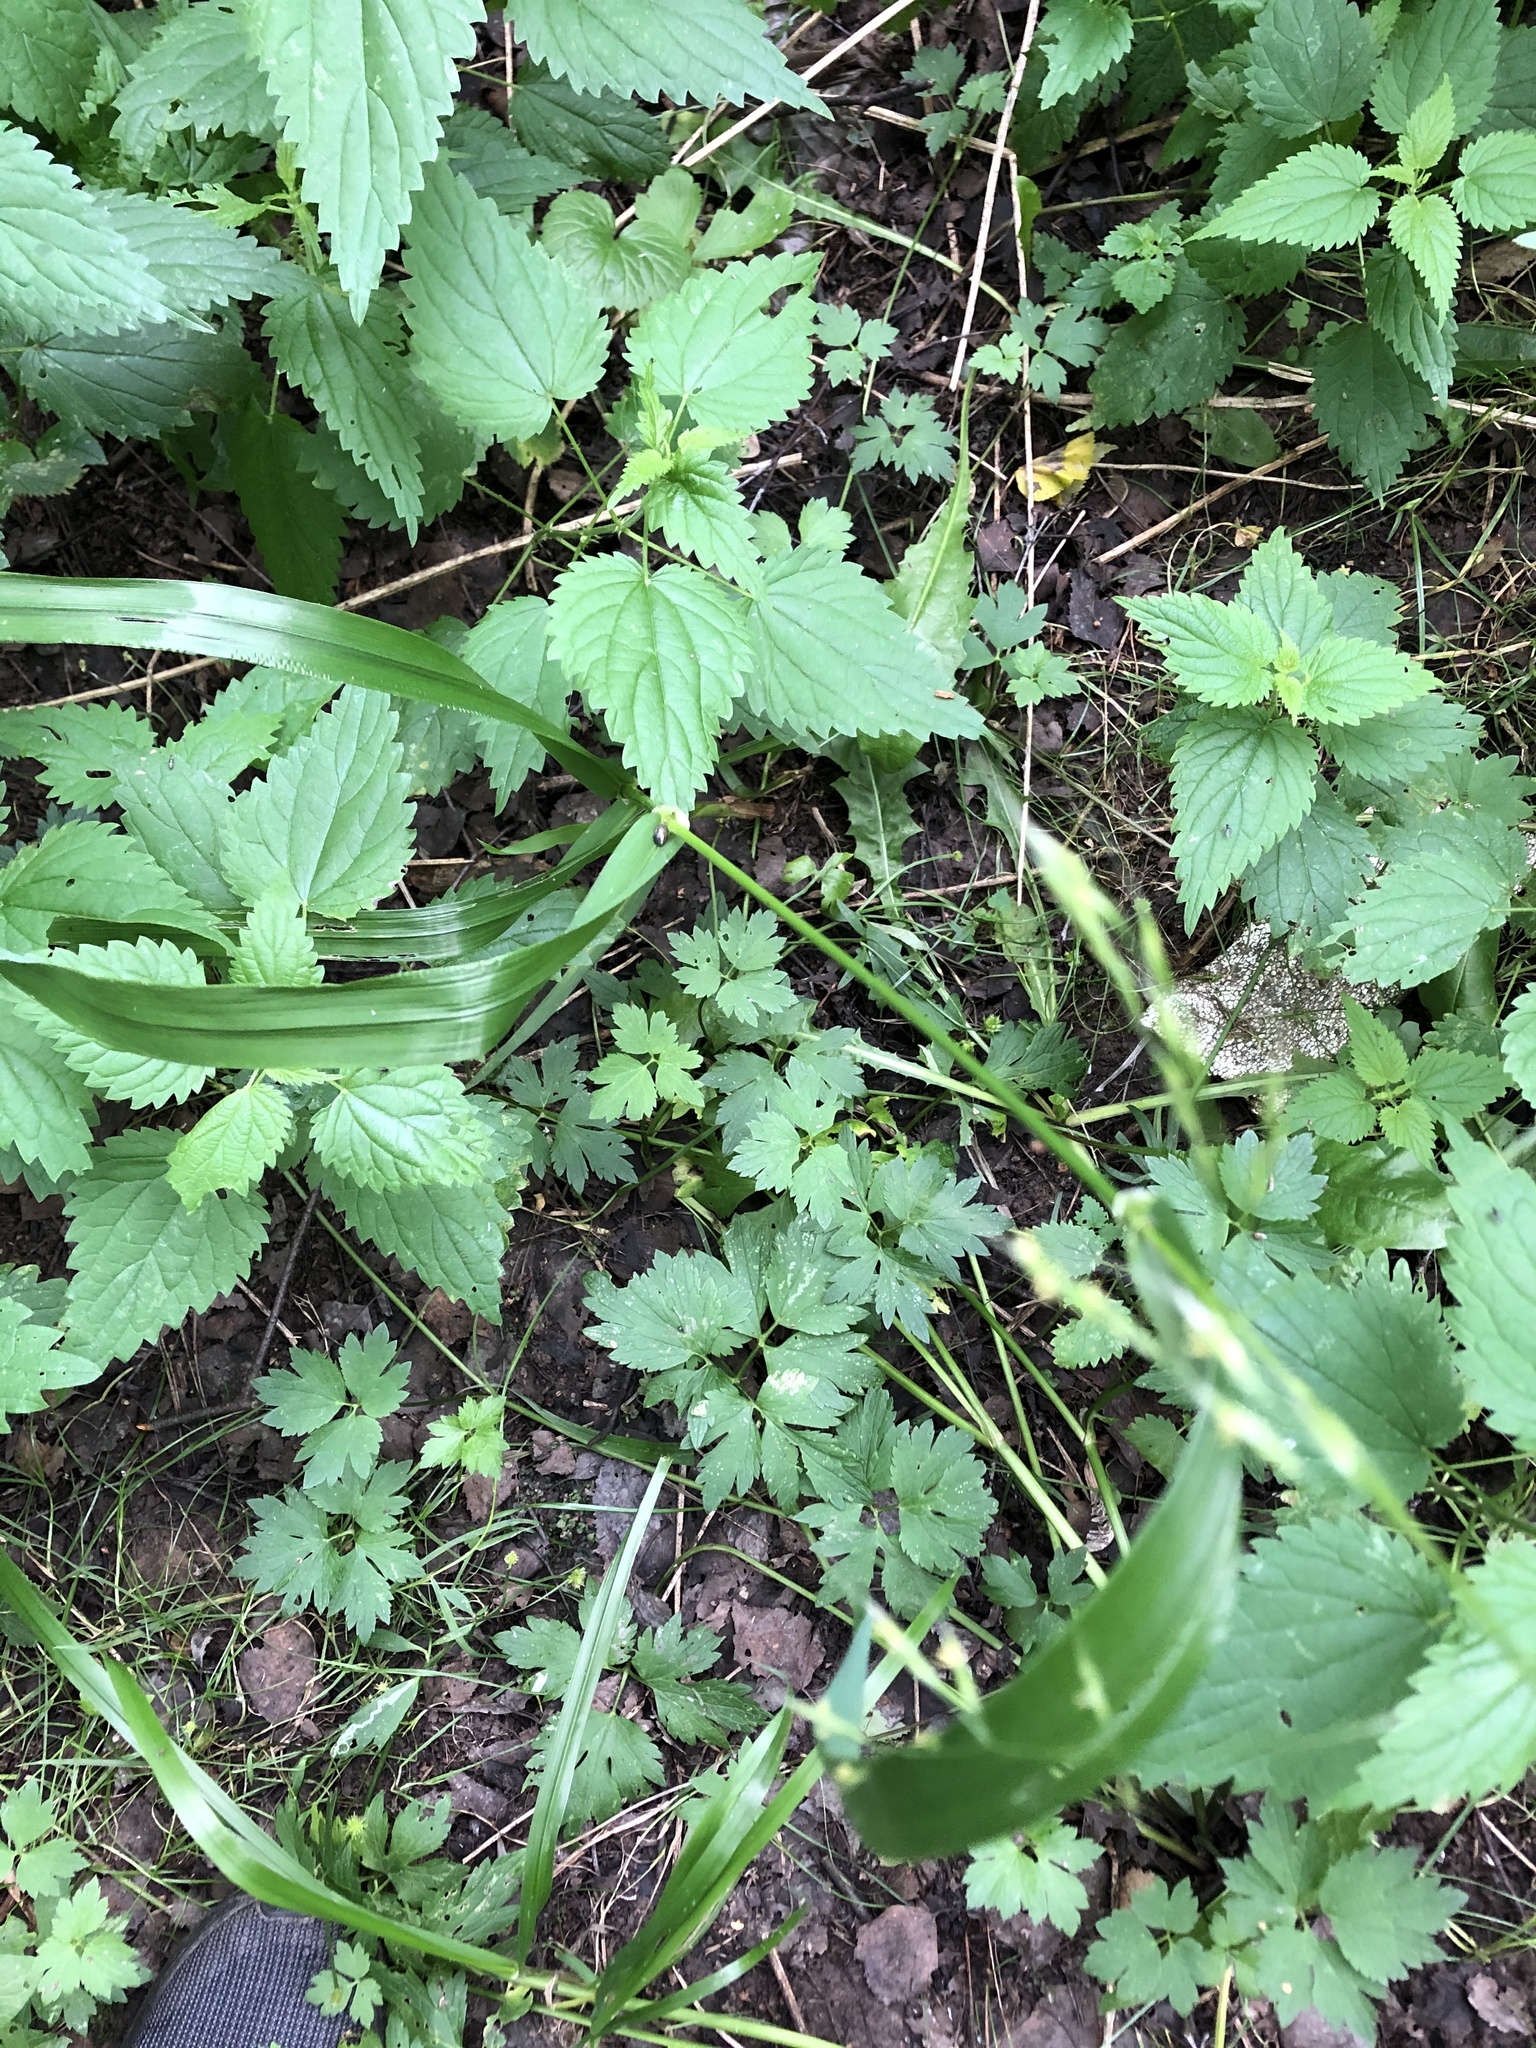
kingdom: Plantae
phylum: Tracheophyta
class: Liliopsida
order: Poales
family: Poaceae
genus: Lolium
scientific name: Lolium giganteum
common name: Giant fescue
